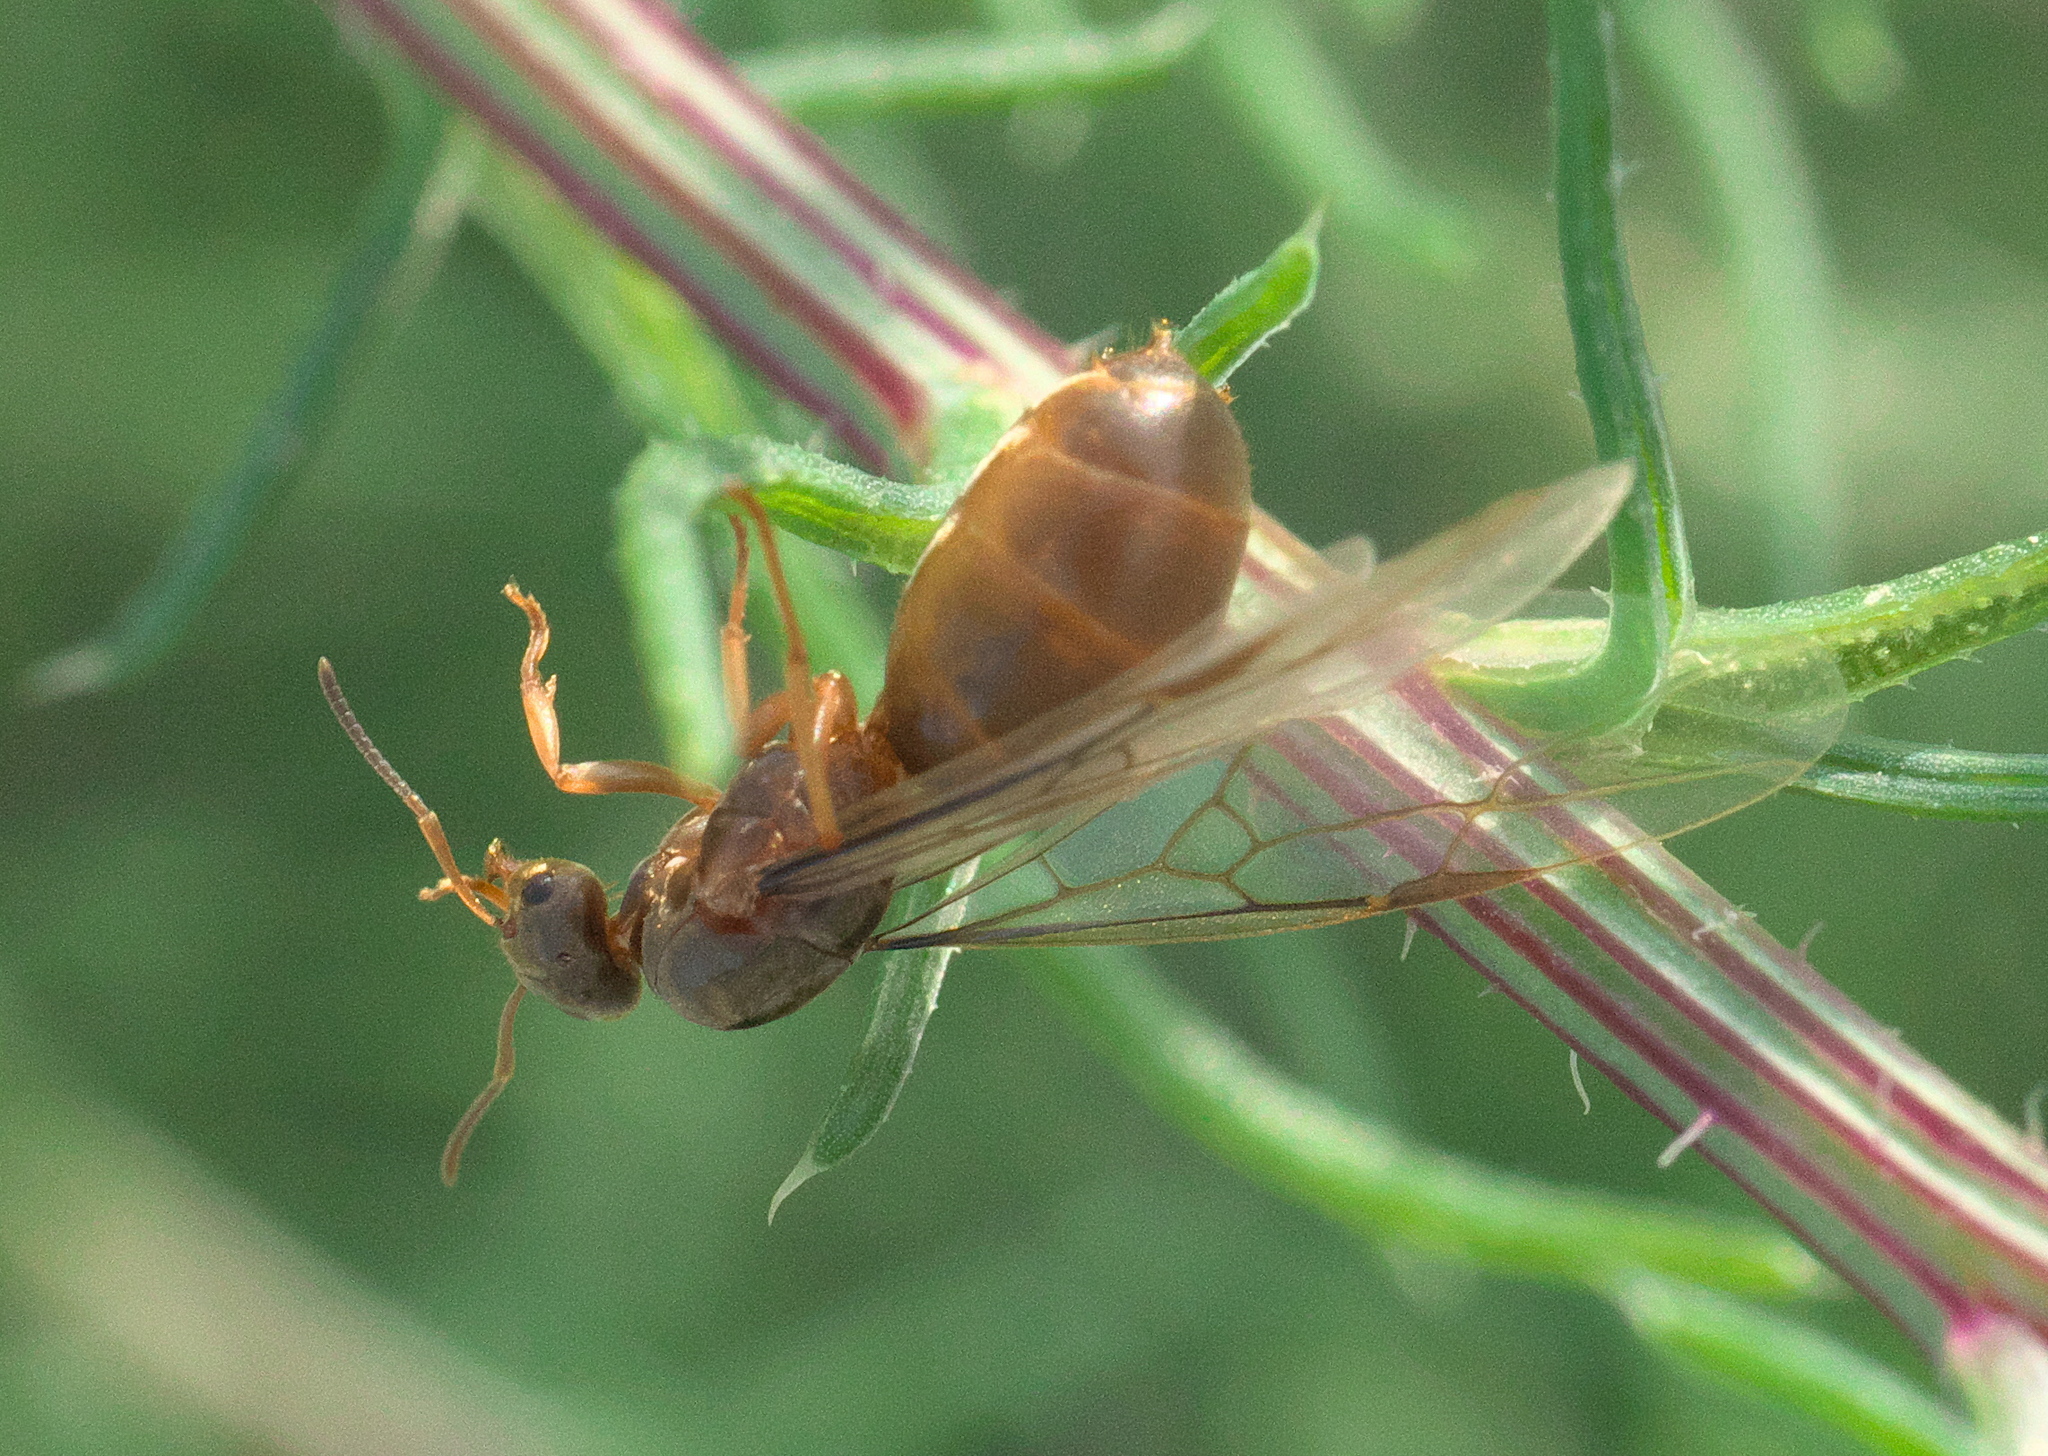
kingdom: Animalia
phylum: Arthropoda
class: Insecta
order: Hymenoptera
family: Formicidae
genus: Lasius
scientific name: Lasius neoniger
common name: Turfgrass ant
